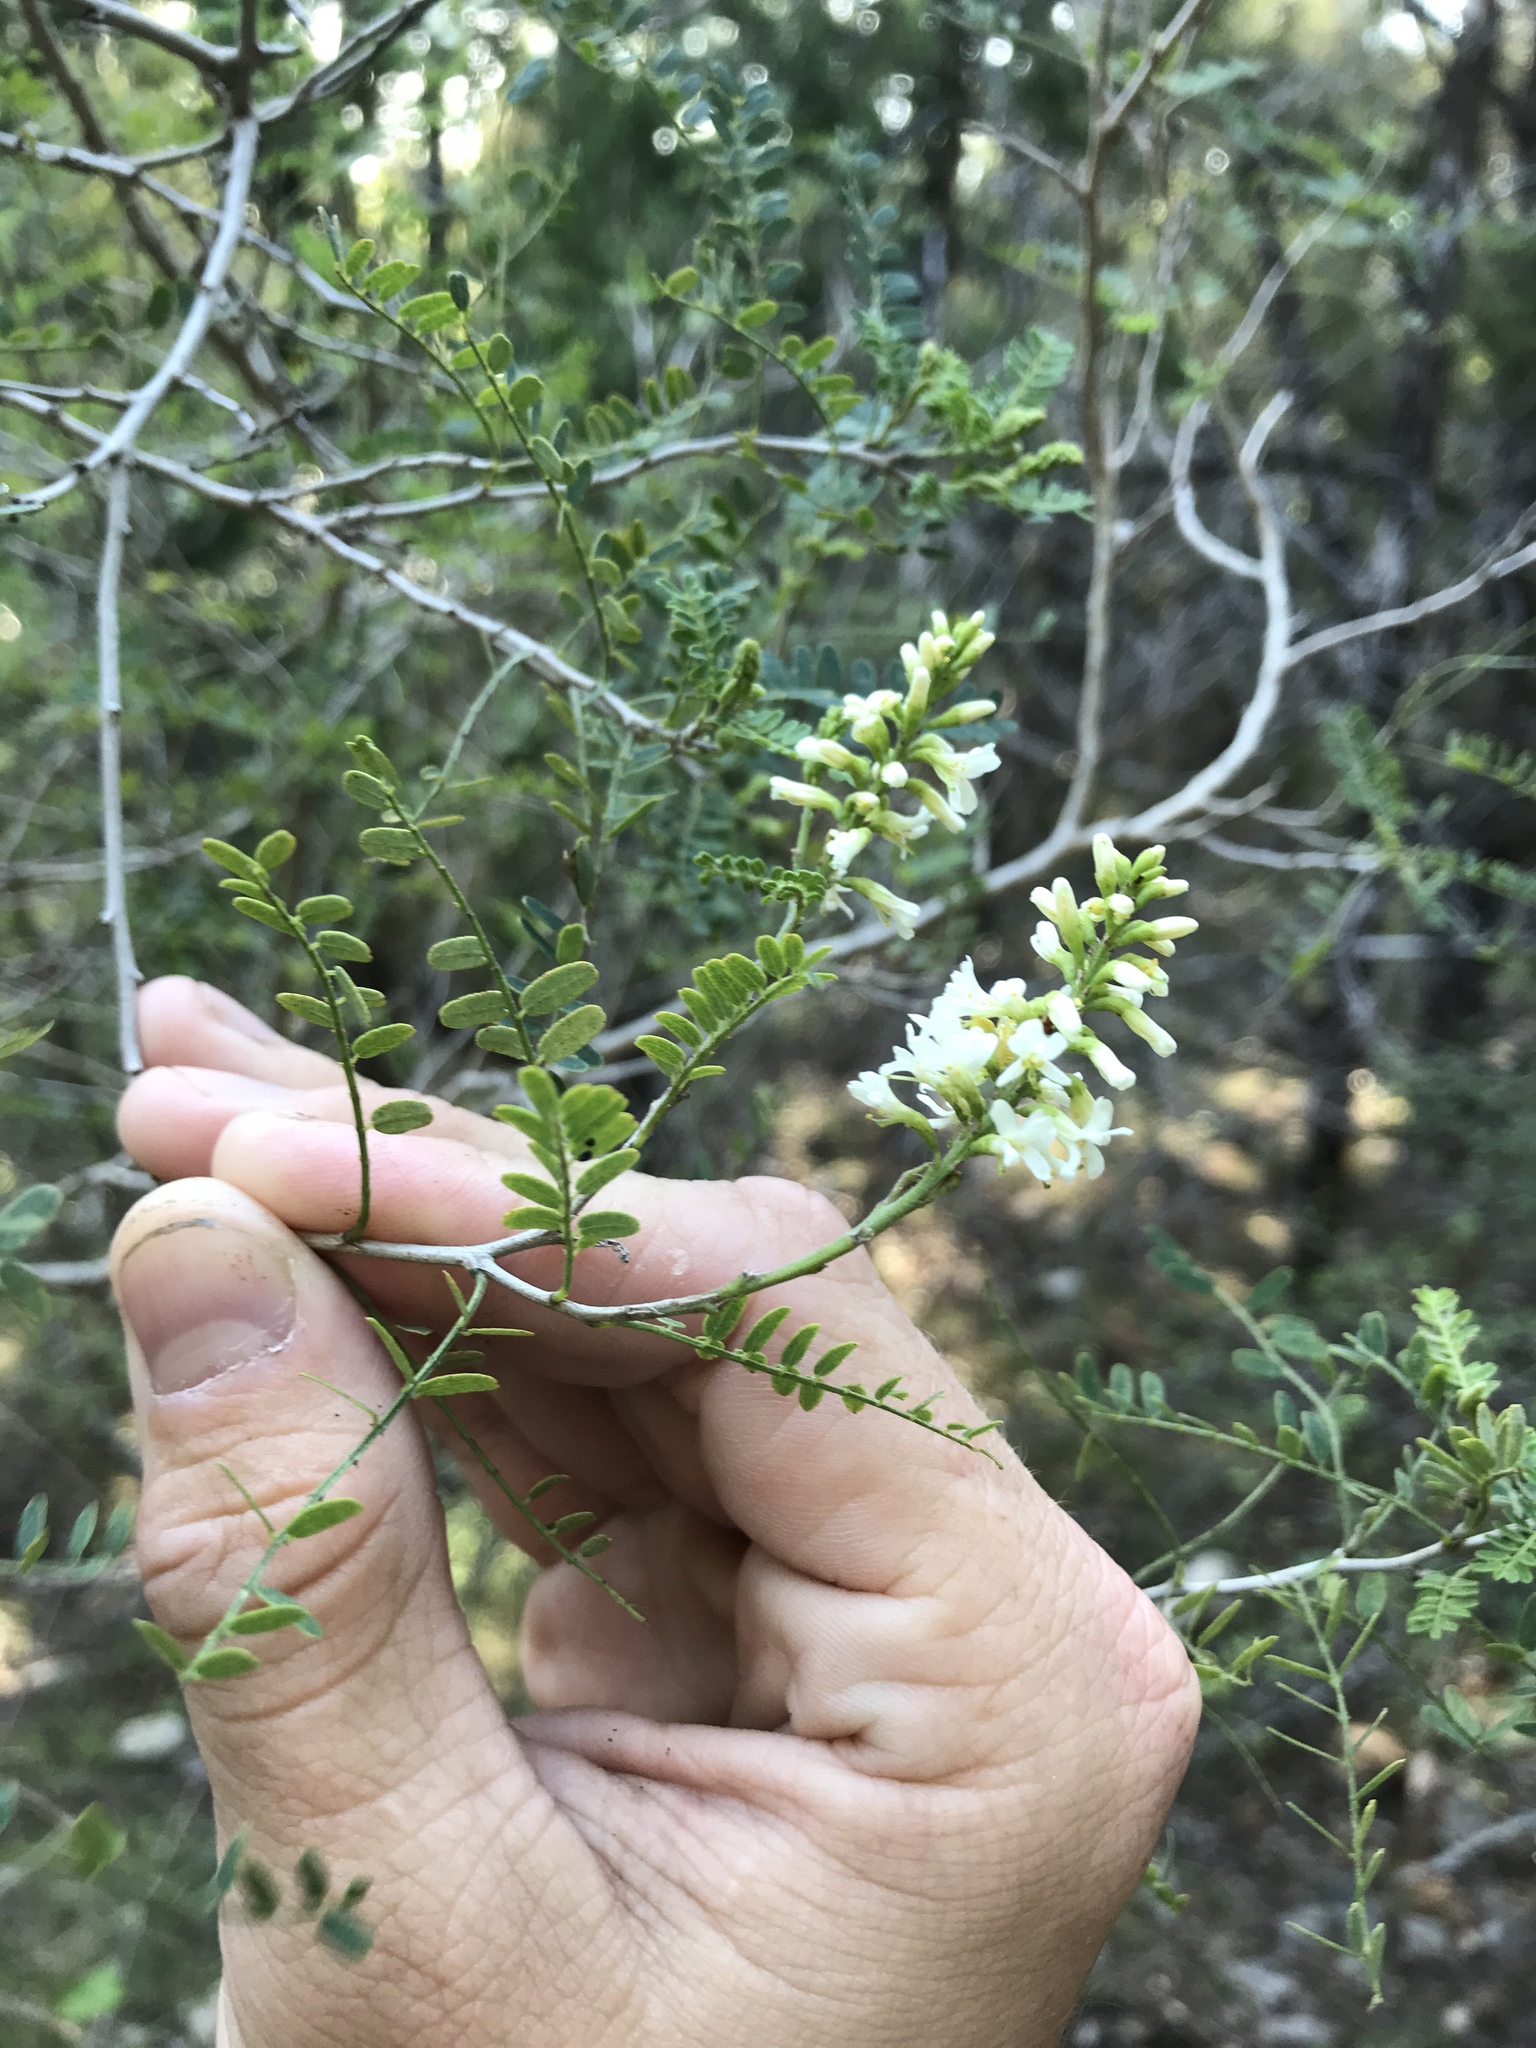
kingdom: Plantae
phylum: Tracheophyta
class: Magnoliopsida
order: Fabales
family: Fabaceae
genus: Eysenhardtia
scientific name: Eysenhardtia texana
